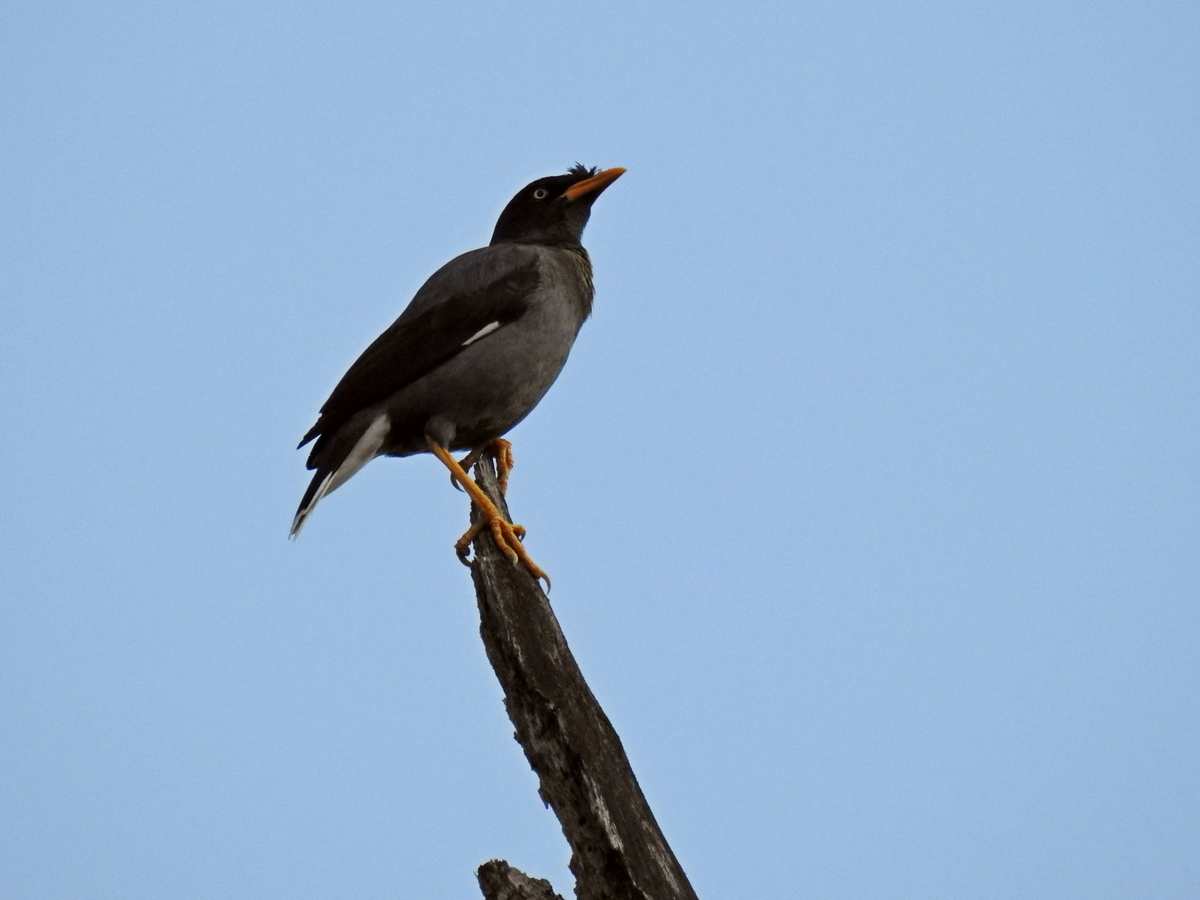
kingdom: Animalia
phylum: Chordata
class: Aves
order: Passeriformes
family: Sturnidae
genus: Acridotheres
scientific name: Acridotheres javanicus
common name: Javan myna
